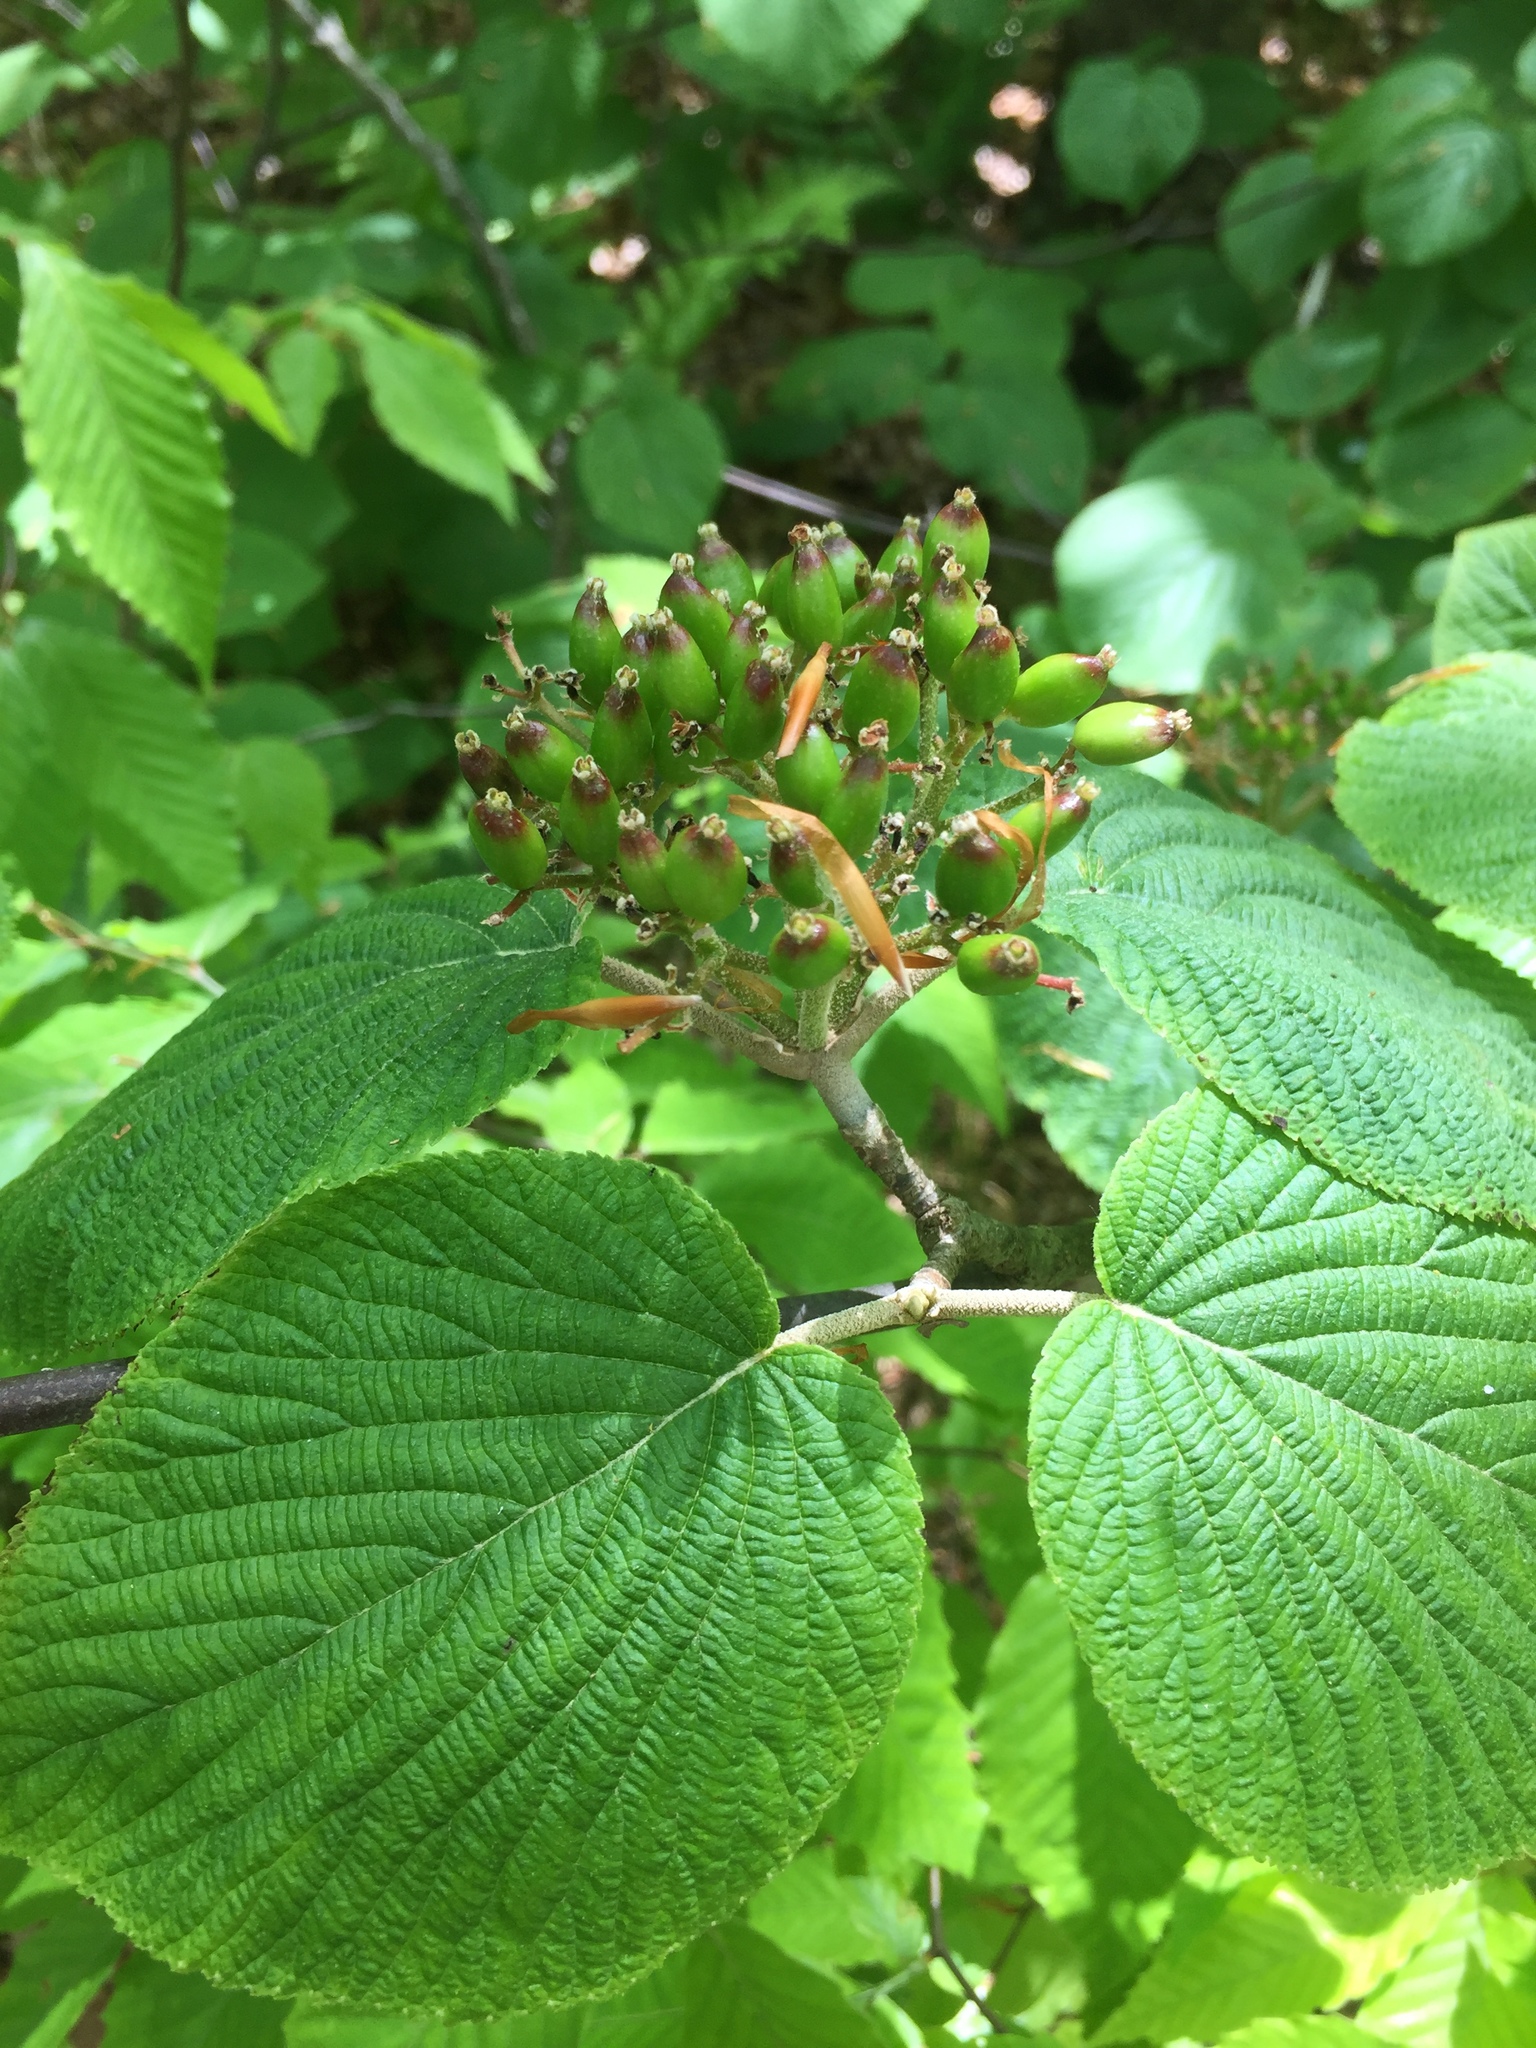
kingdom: Plantae
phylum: Tracheophyta
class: Magnoliopsida
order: Dipsacales
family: Viburnaceae
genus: Viburnum
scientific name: Viburnum lantanoides
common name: Hobblebush
